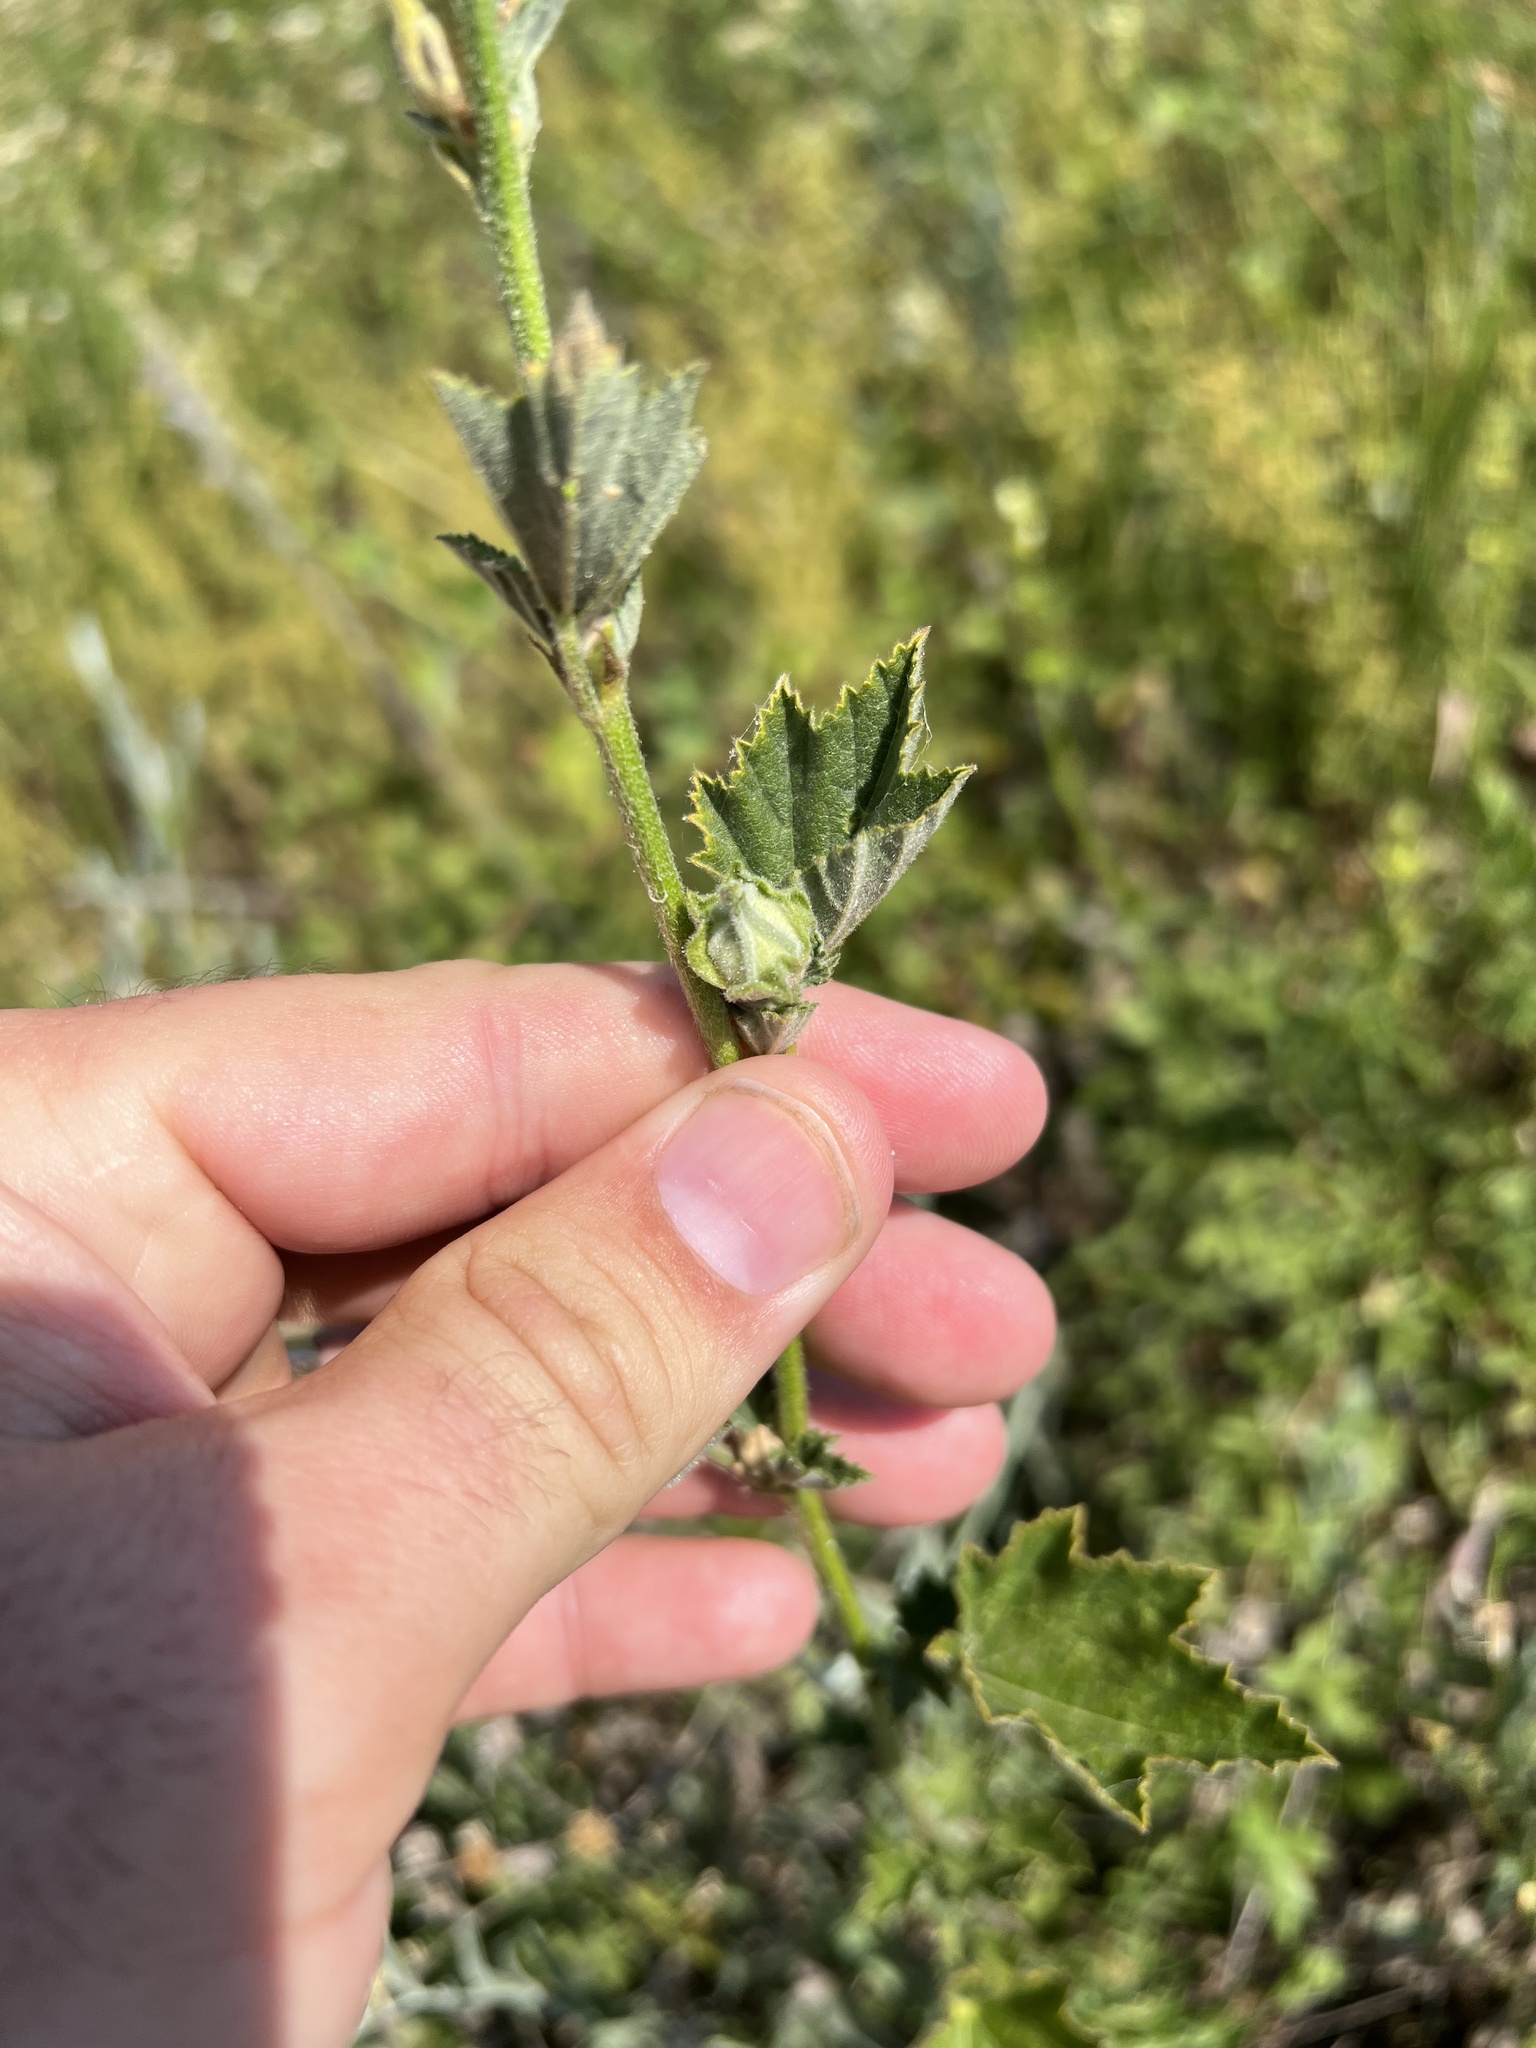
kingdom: Plantae
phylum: Tracheophyta
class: Magnoliopsida
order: Malvales
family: Malvaceae
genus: Malva
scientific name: Malva thuringiaca
